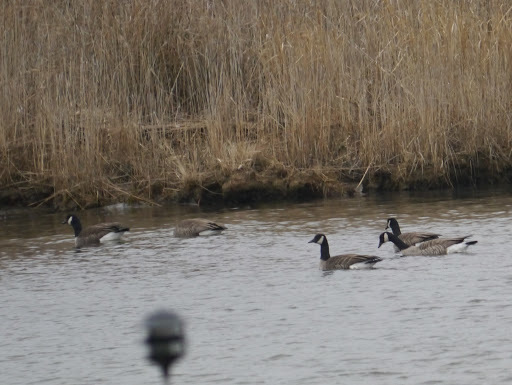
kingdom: Animalia
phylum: Chordata
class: Aves
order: Anseriformes
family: Anatidae
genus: Branta
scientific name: Branta canadensis
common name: Canada goose
